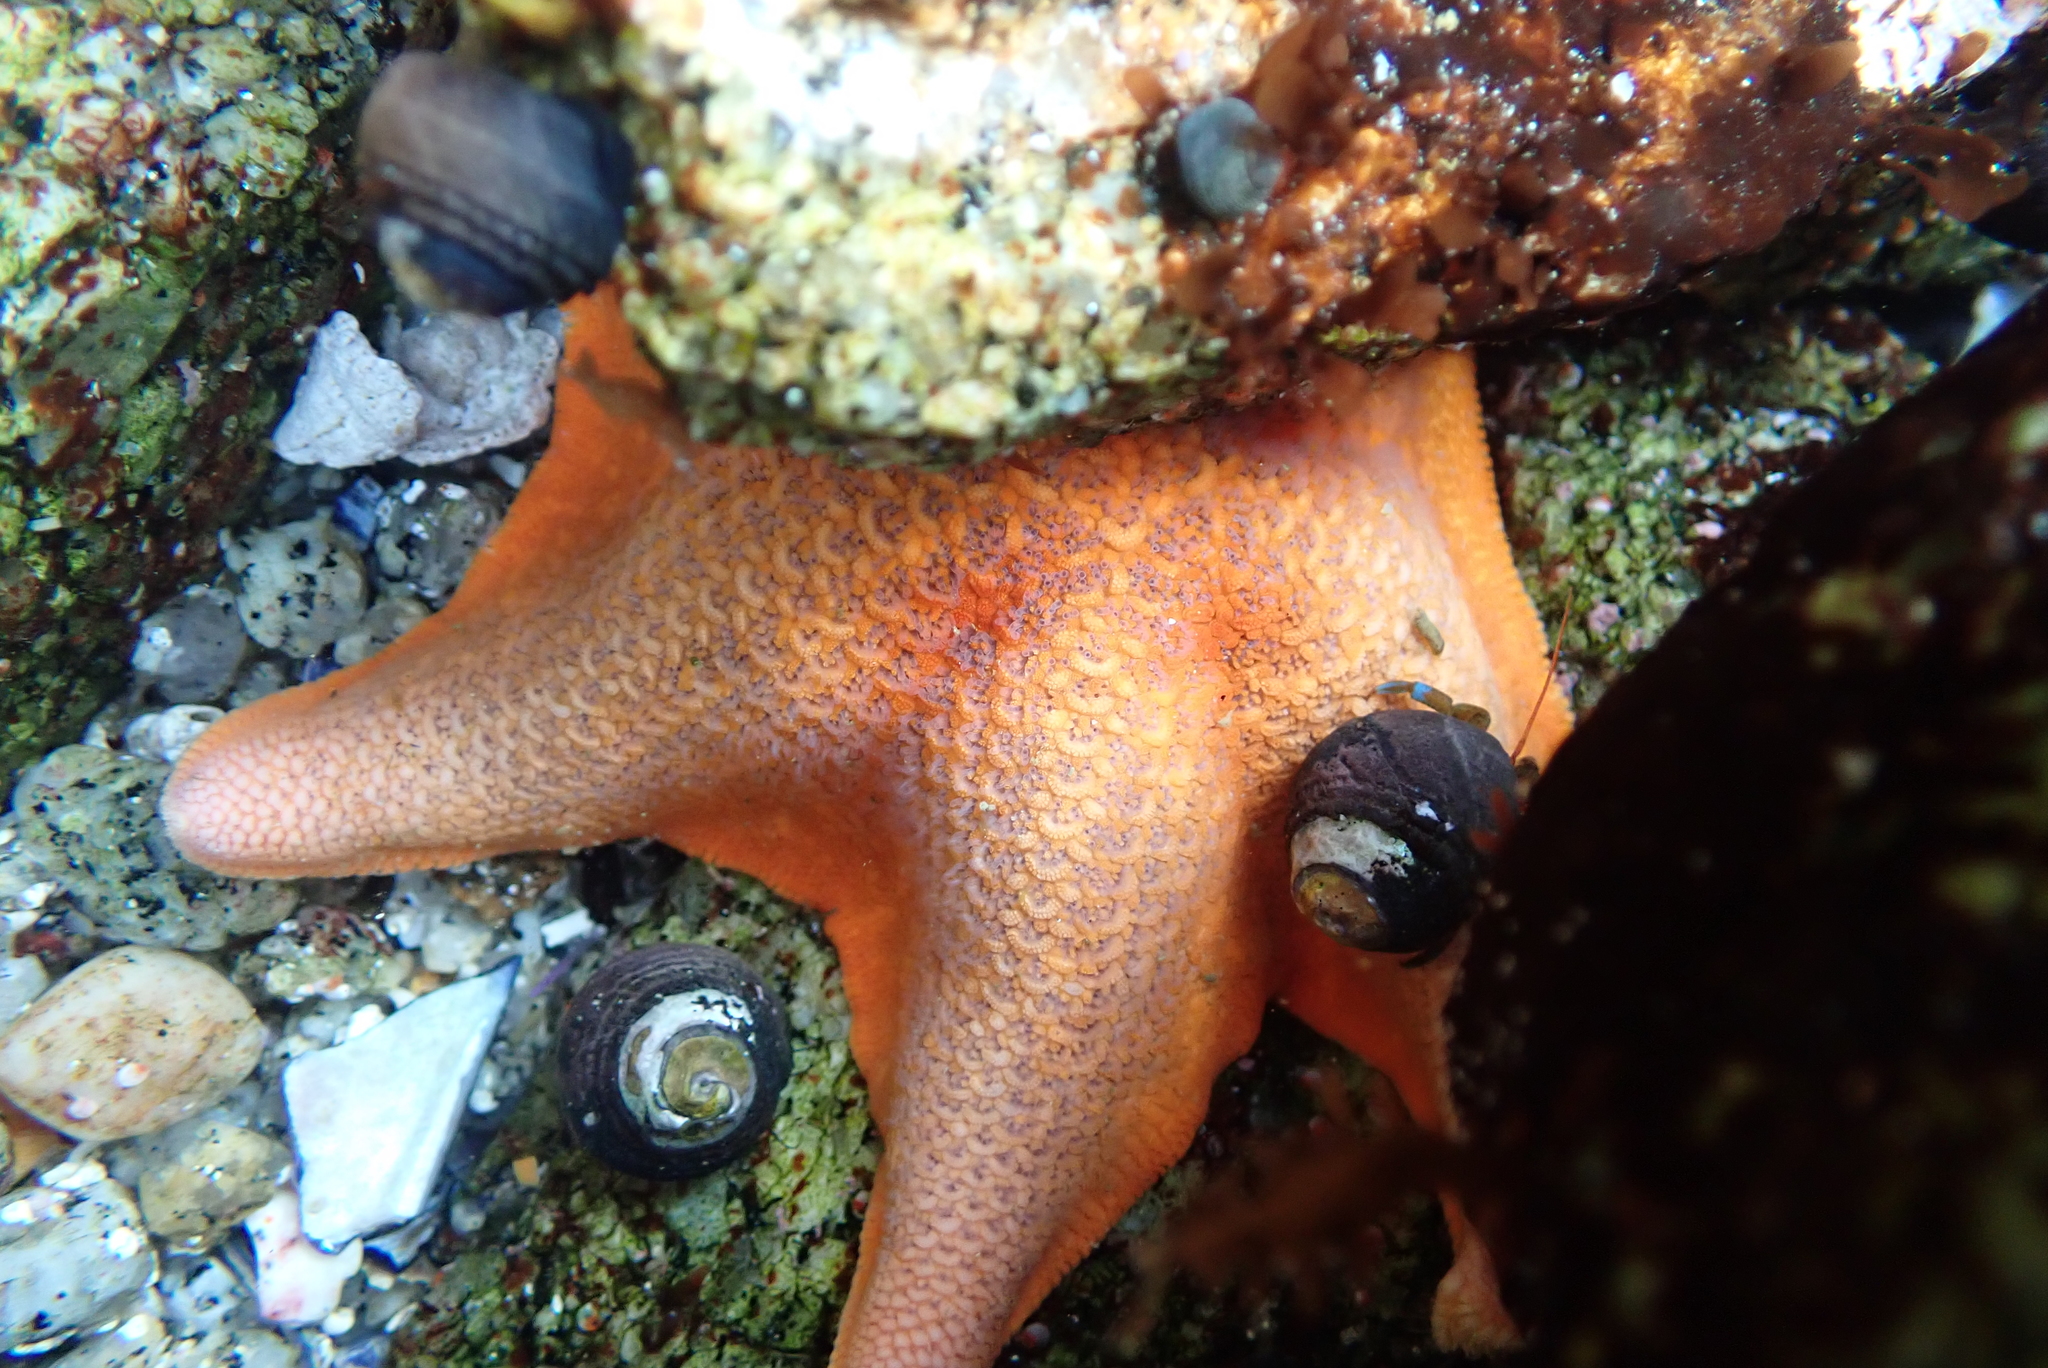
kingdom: Animalia
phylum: Echinodermata
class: Asteroidea
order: Valvatida
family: Asterinidae
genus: Patiria
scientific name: Patiria miniata
